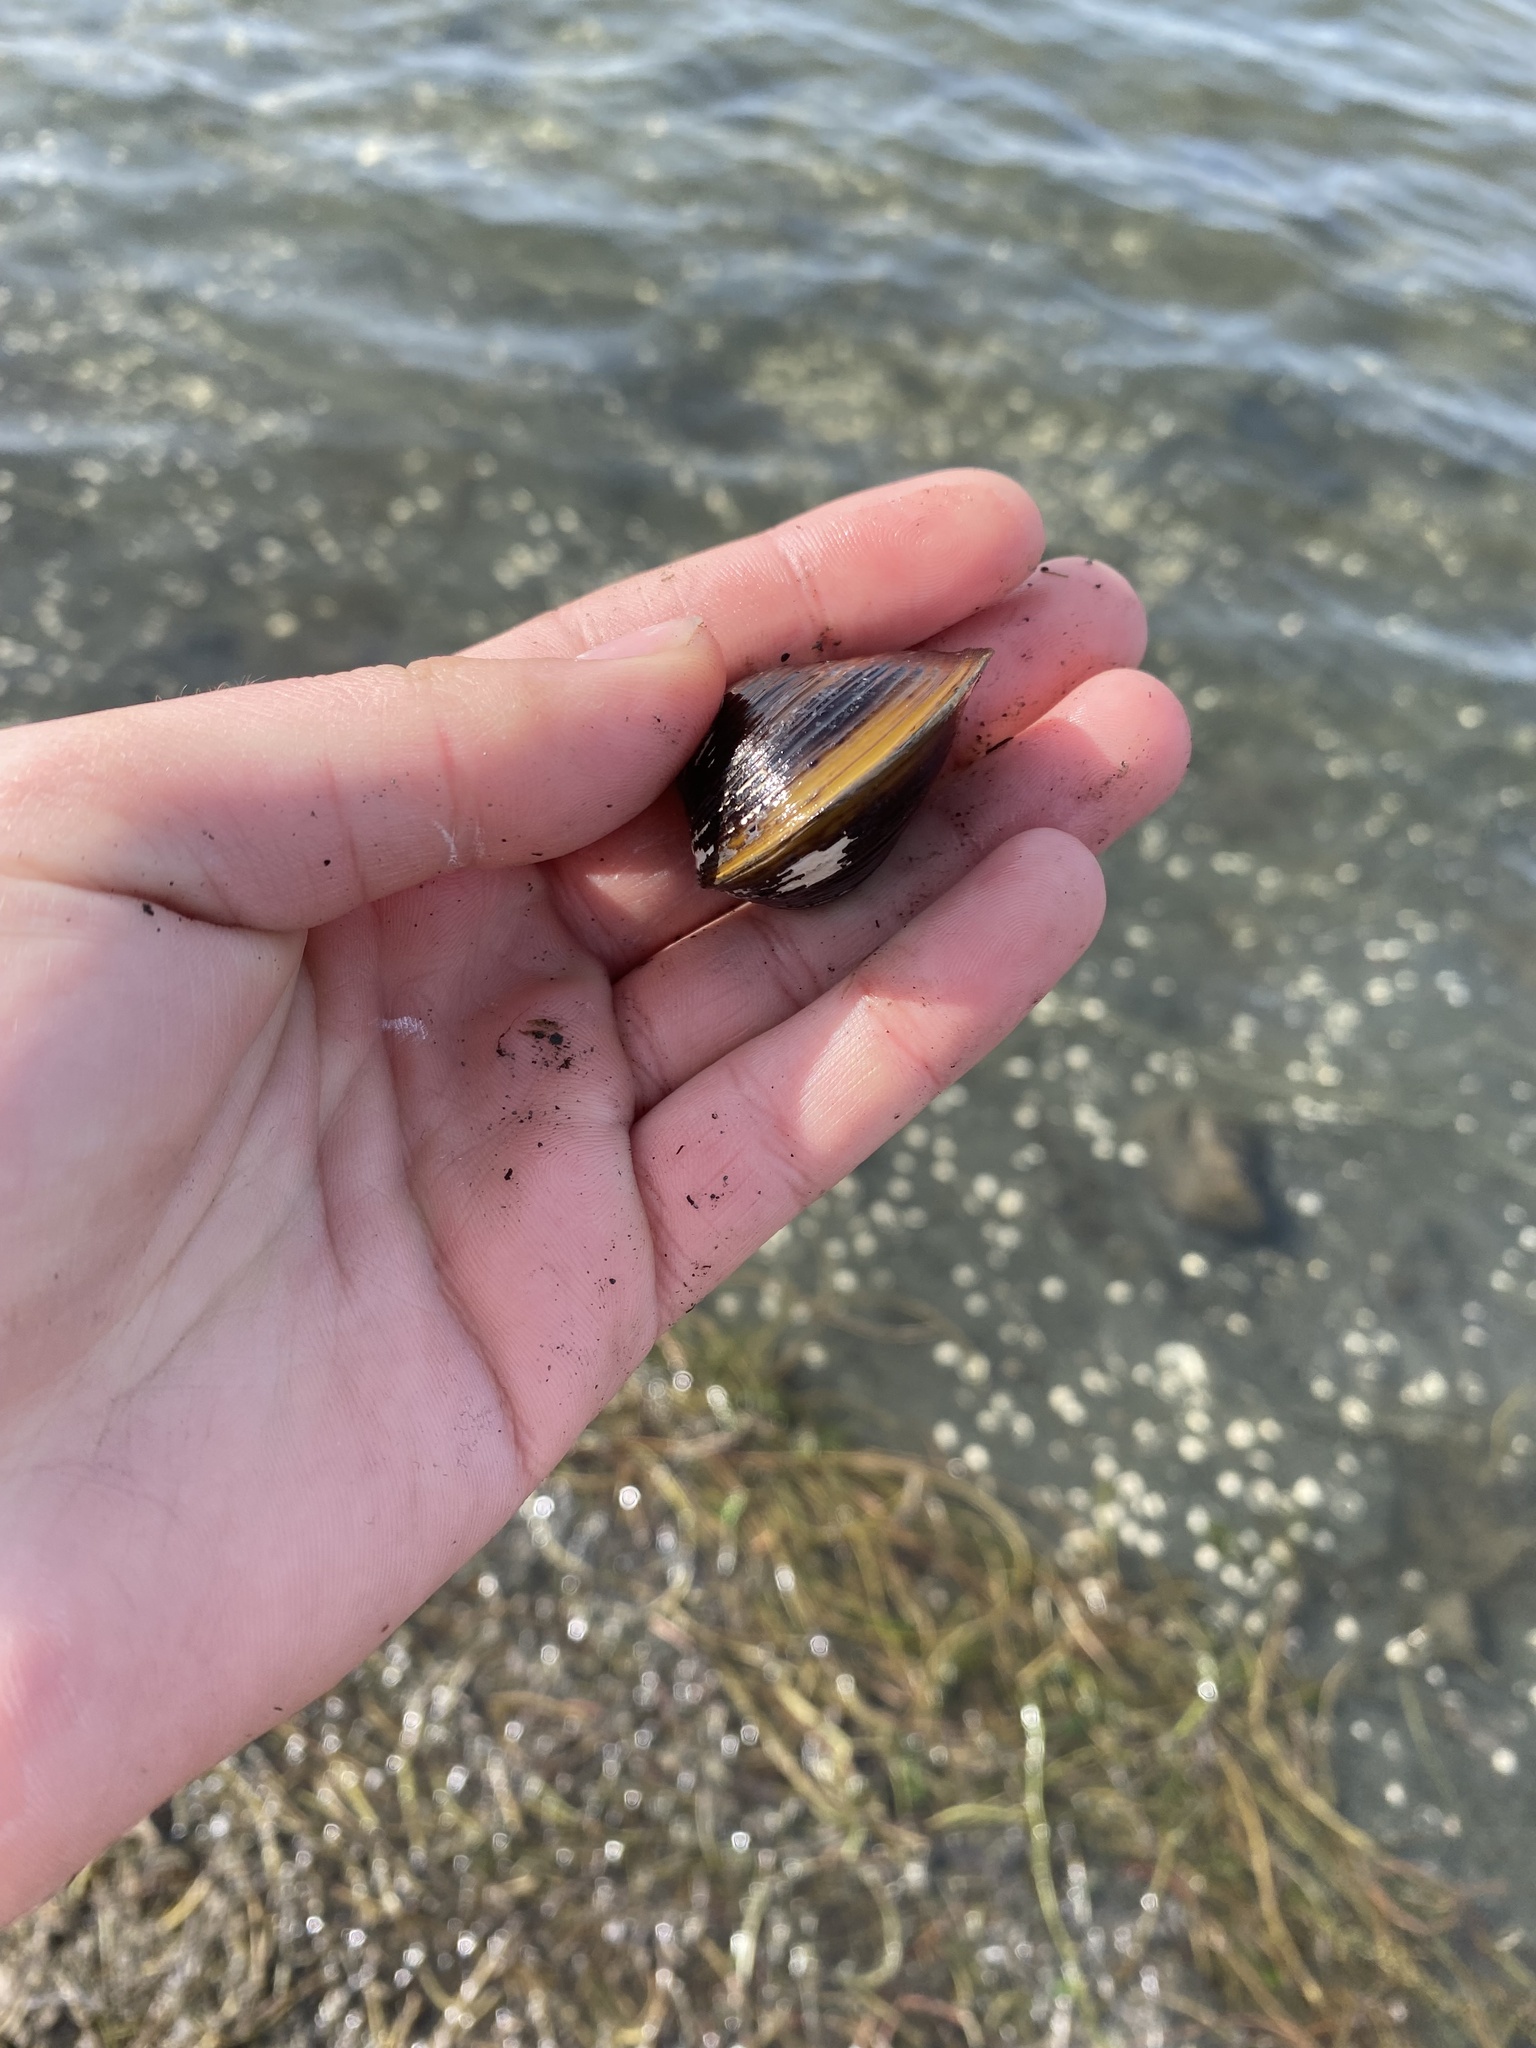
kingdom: Animalia
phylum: Mollusca
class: Bivalvia
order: Venerida
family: Cyrenidae
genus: Corbicula
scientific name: Corbicula fluminea
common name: Asian clam
